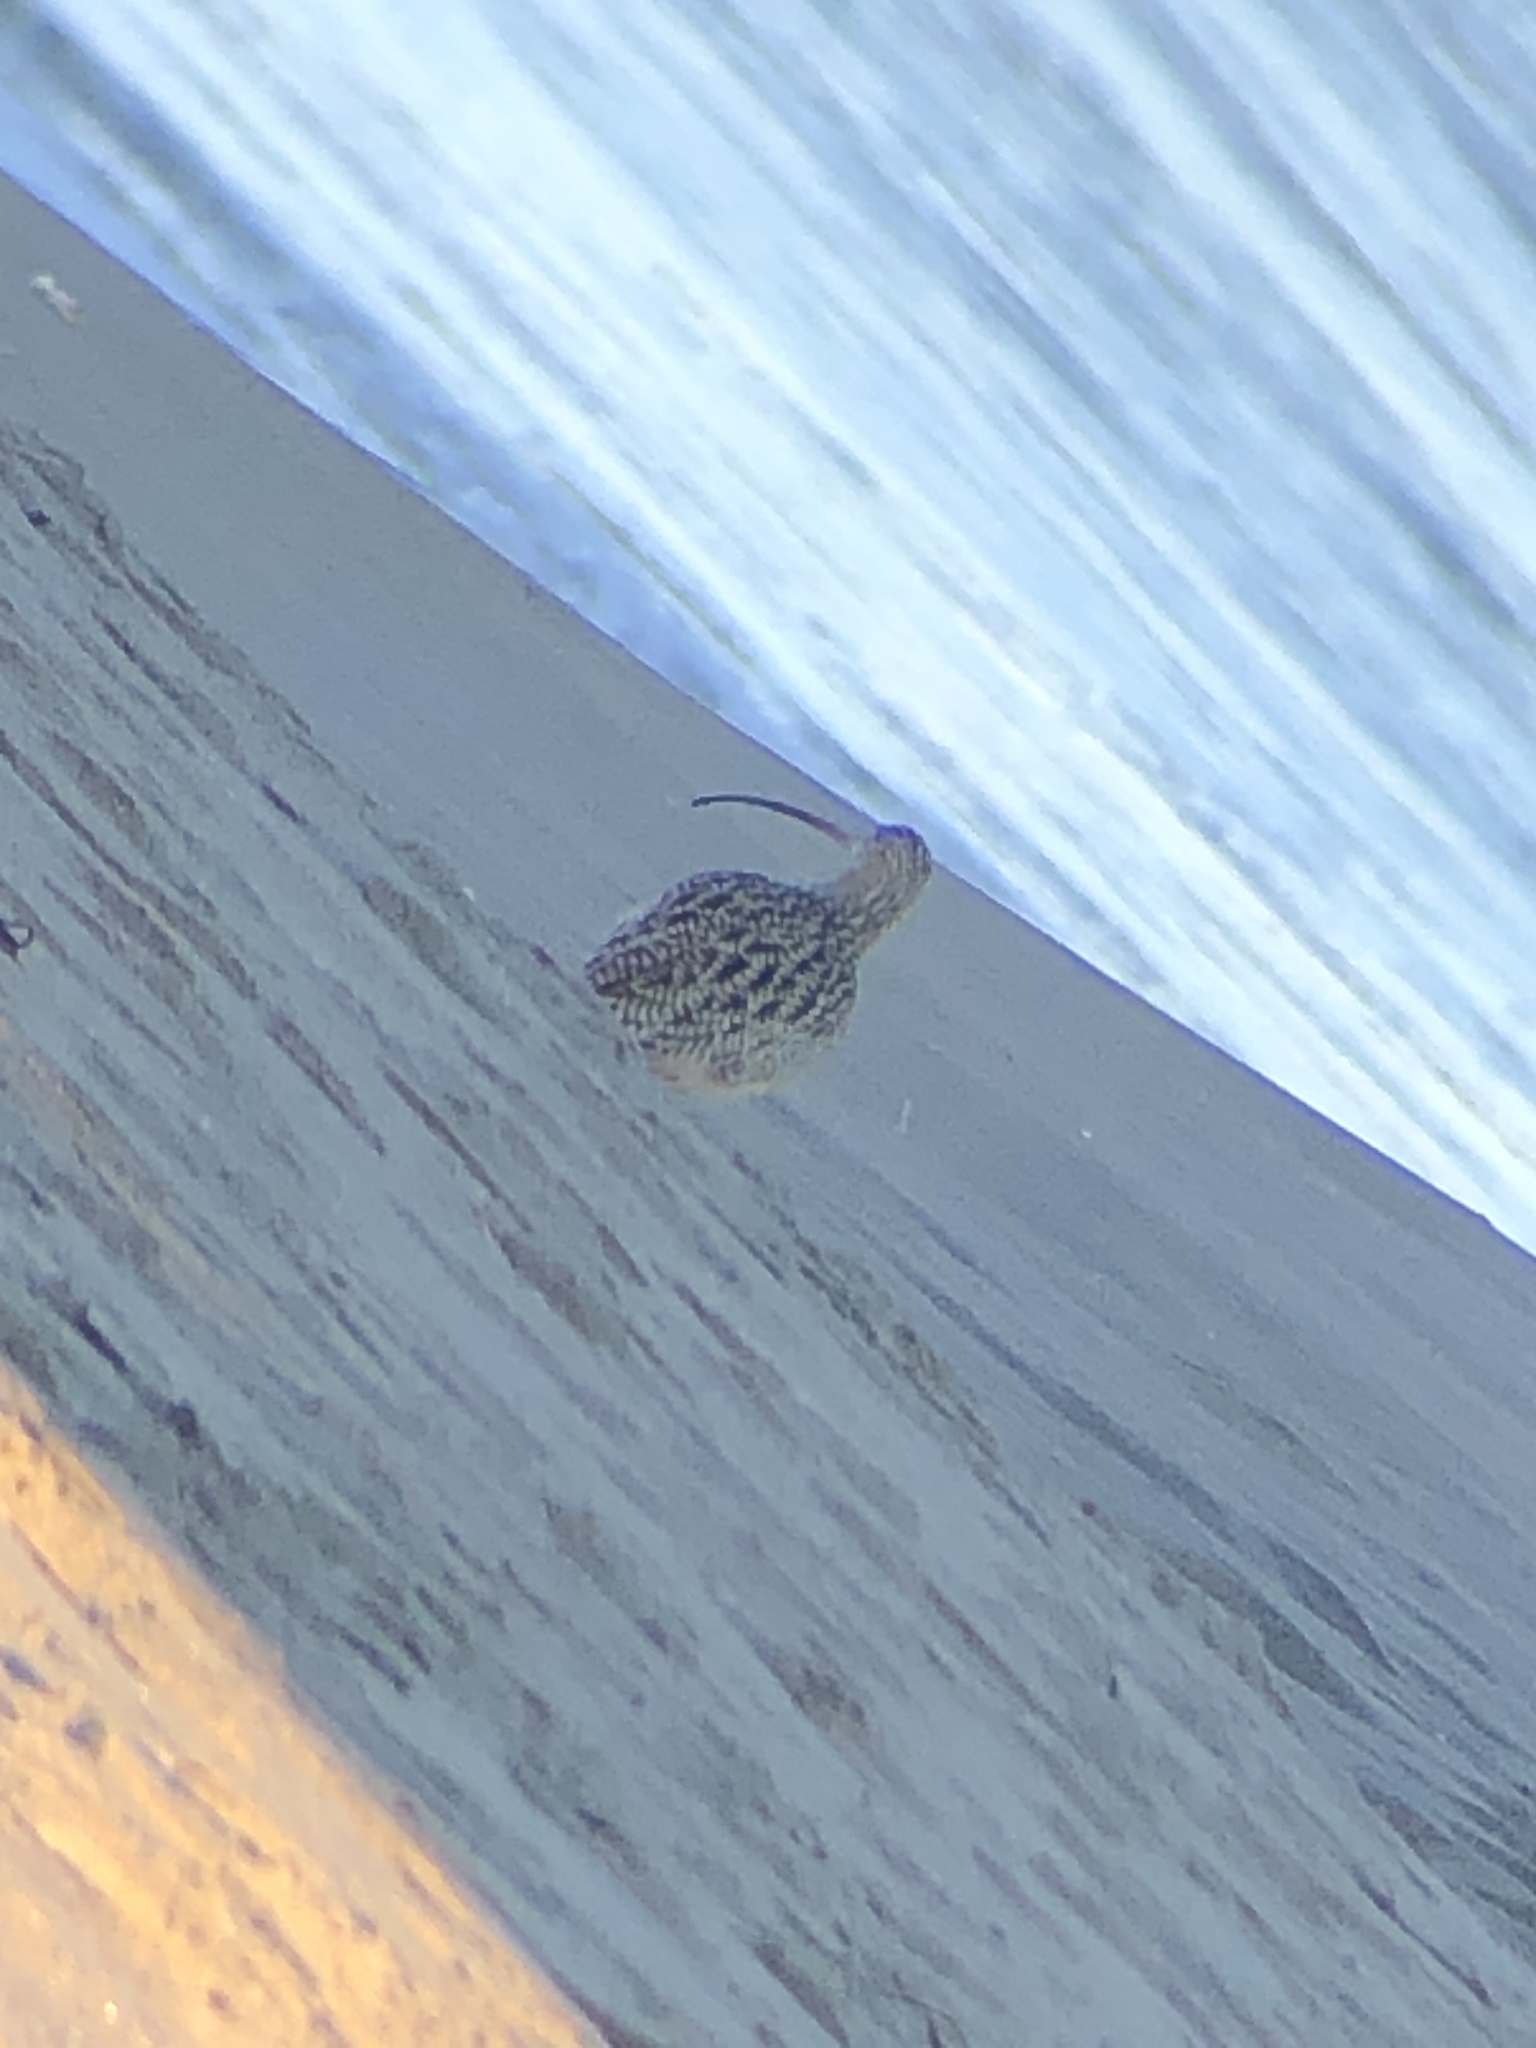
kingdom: Animalia
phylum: Chordata
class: Aves
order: Charadriiformes
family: Scolopacidae
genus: Numenius
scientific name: Numenius americanus
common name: Long-billed curlew
